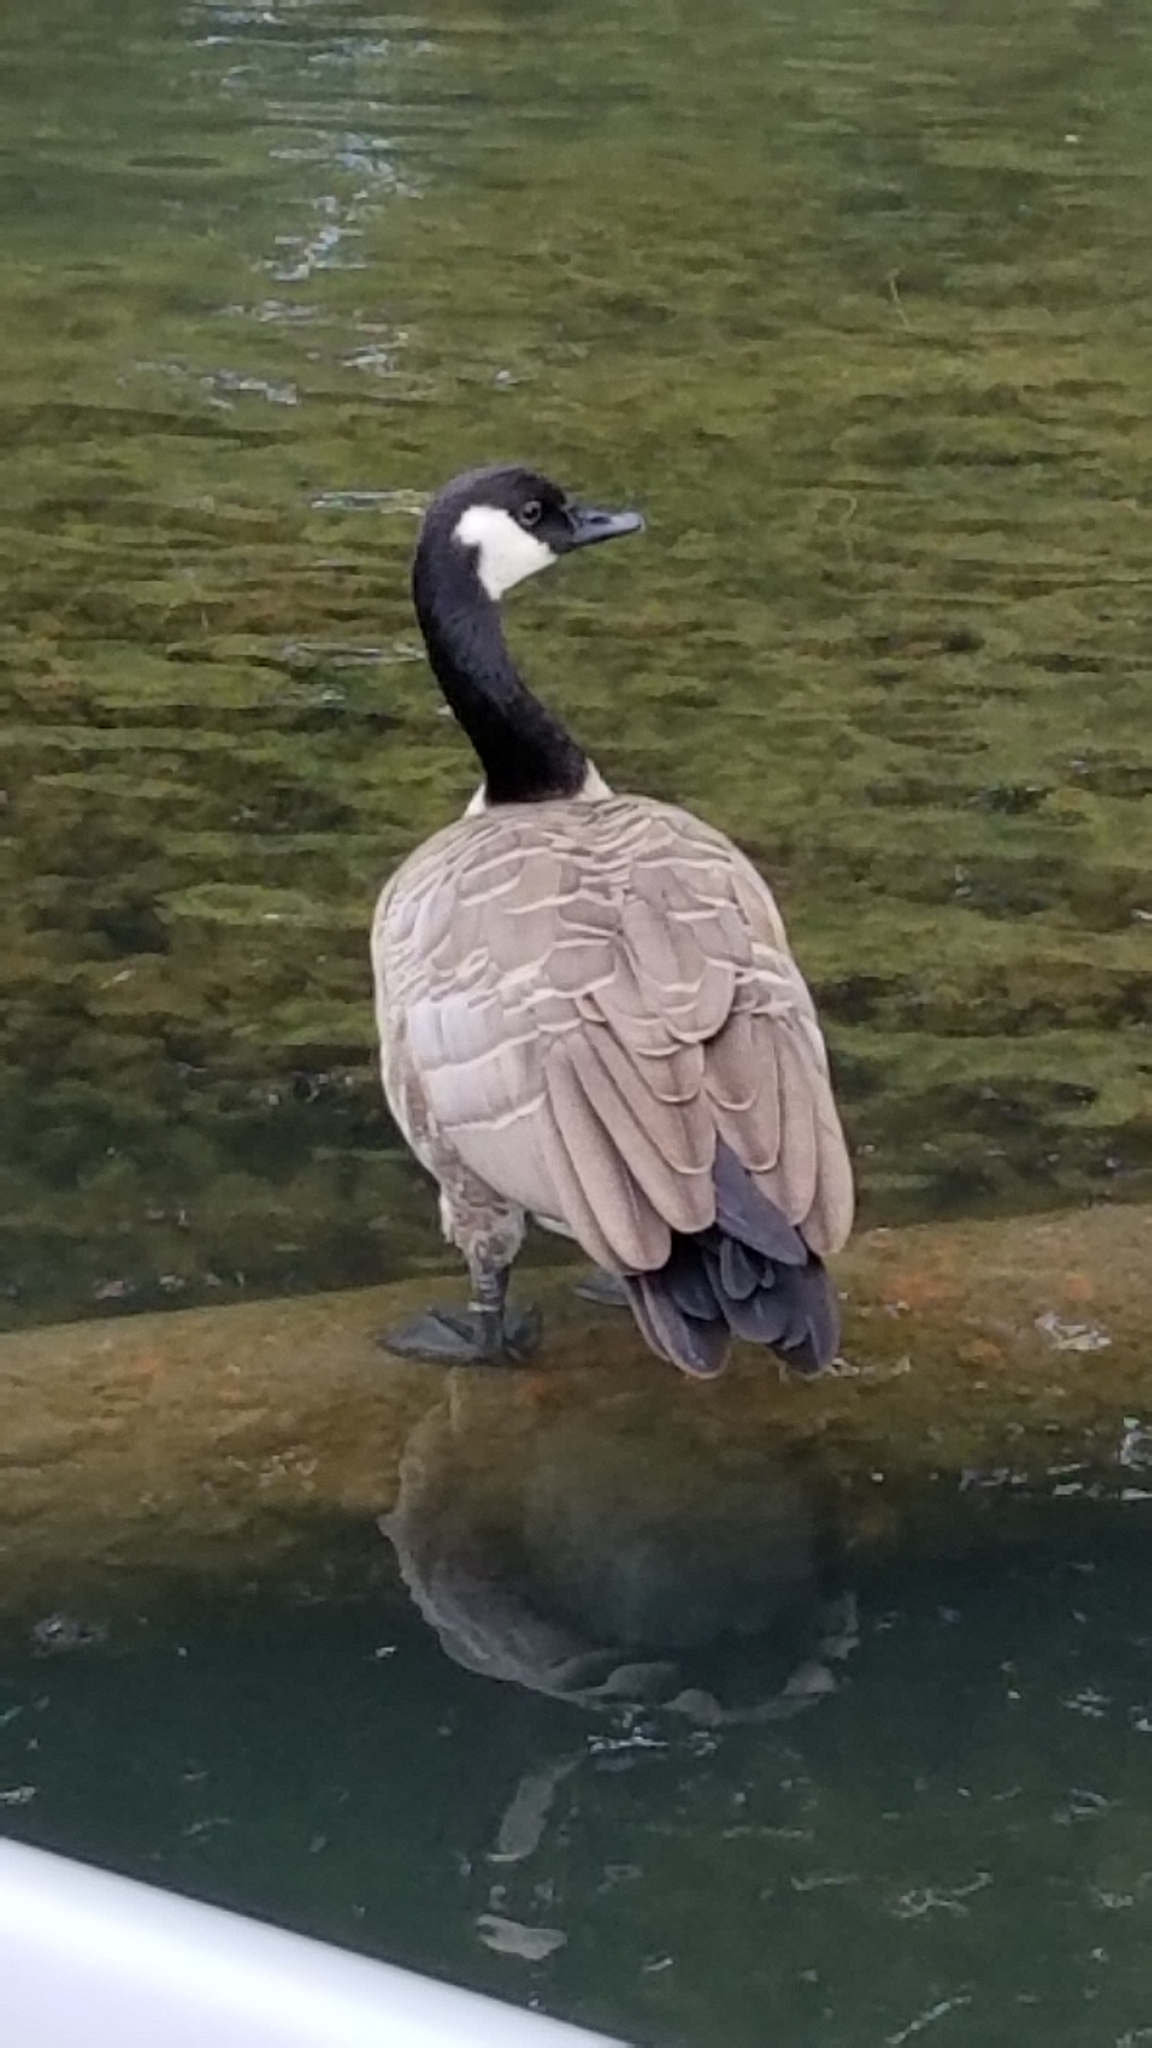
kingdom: Animalia
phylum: Chordata
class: Aves
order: Anseriformes
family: Anatidae
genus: Branta
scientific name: Branta canadensis
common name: Canada goose
